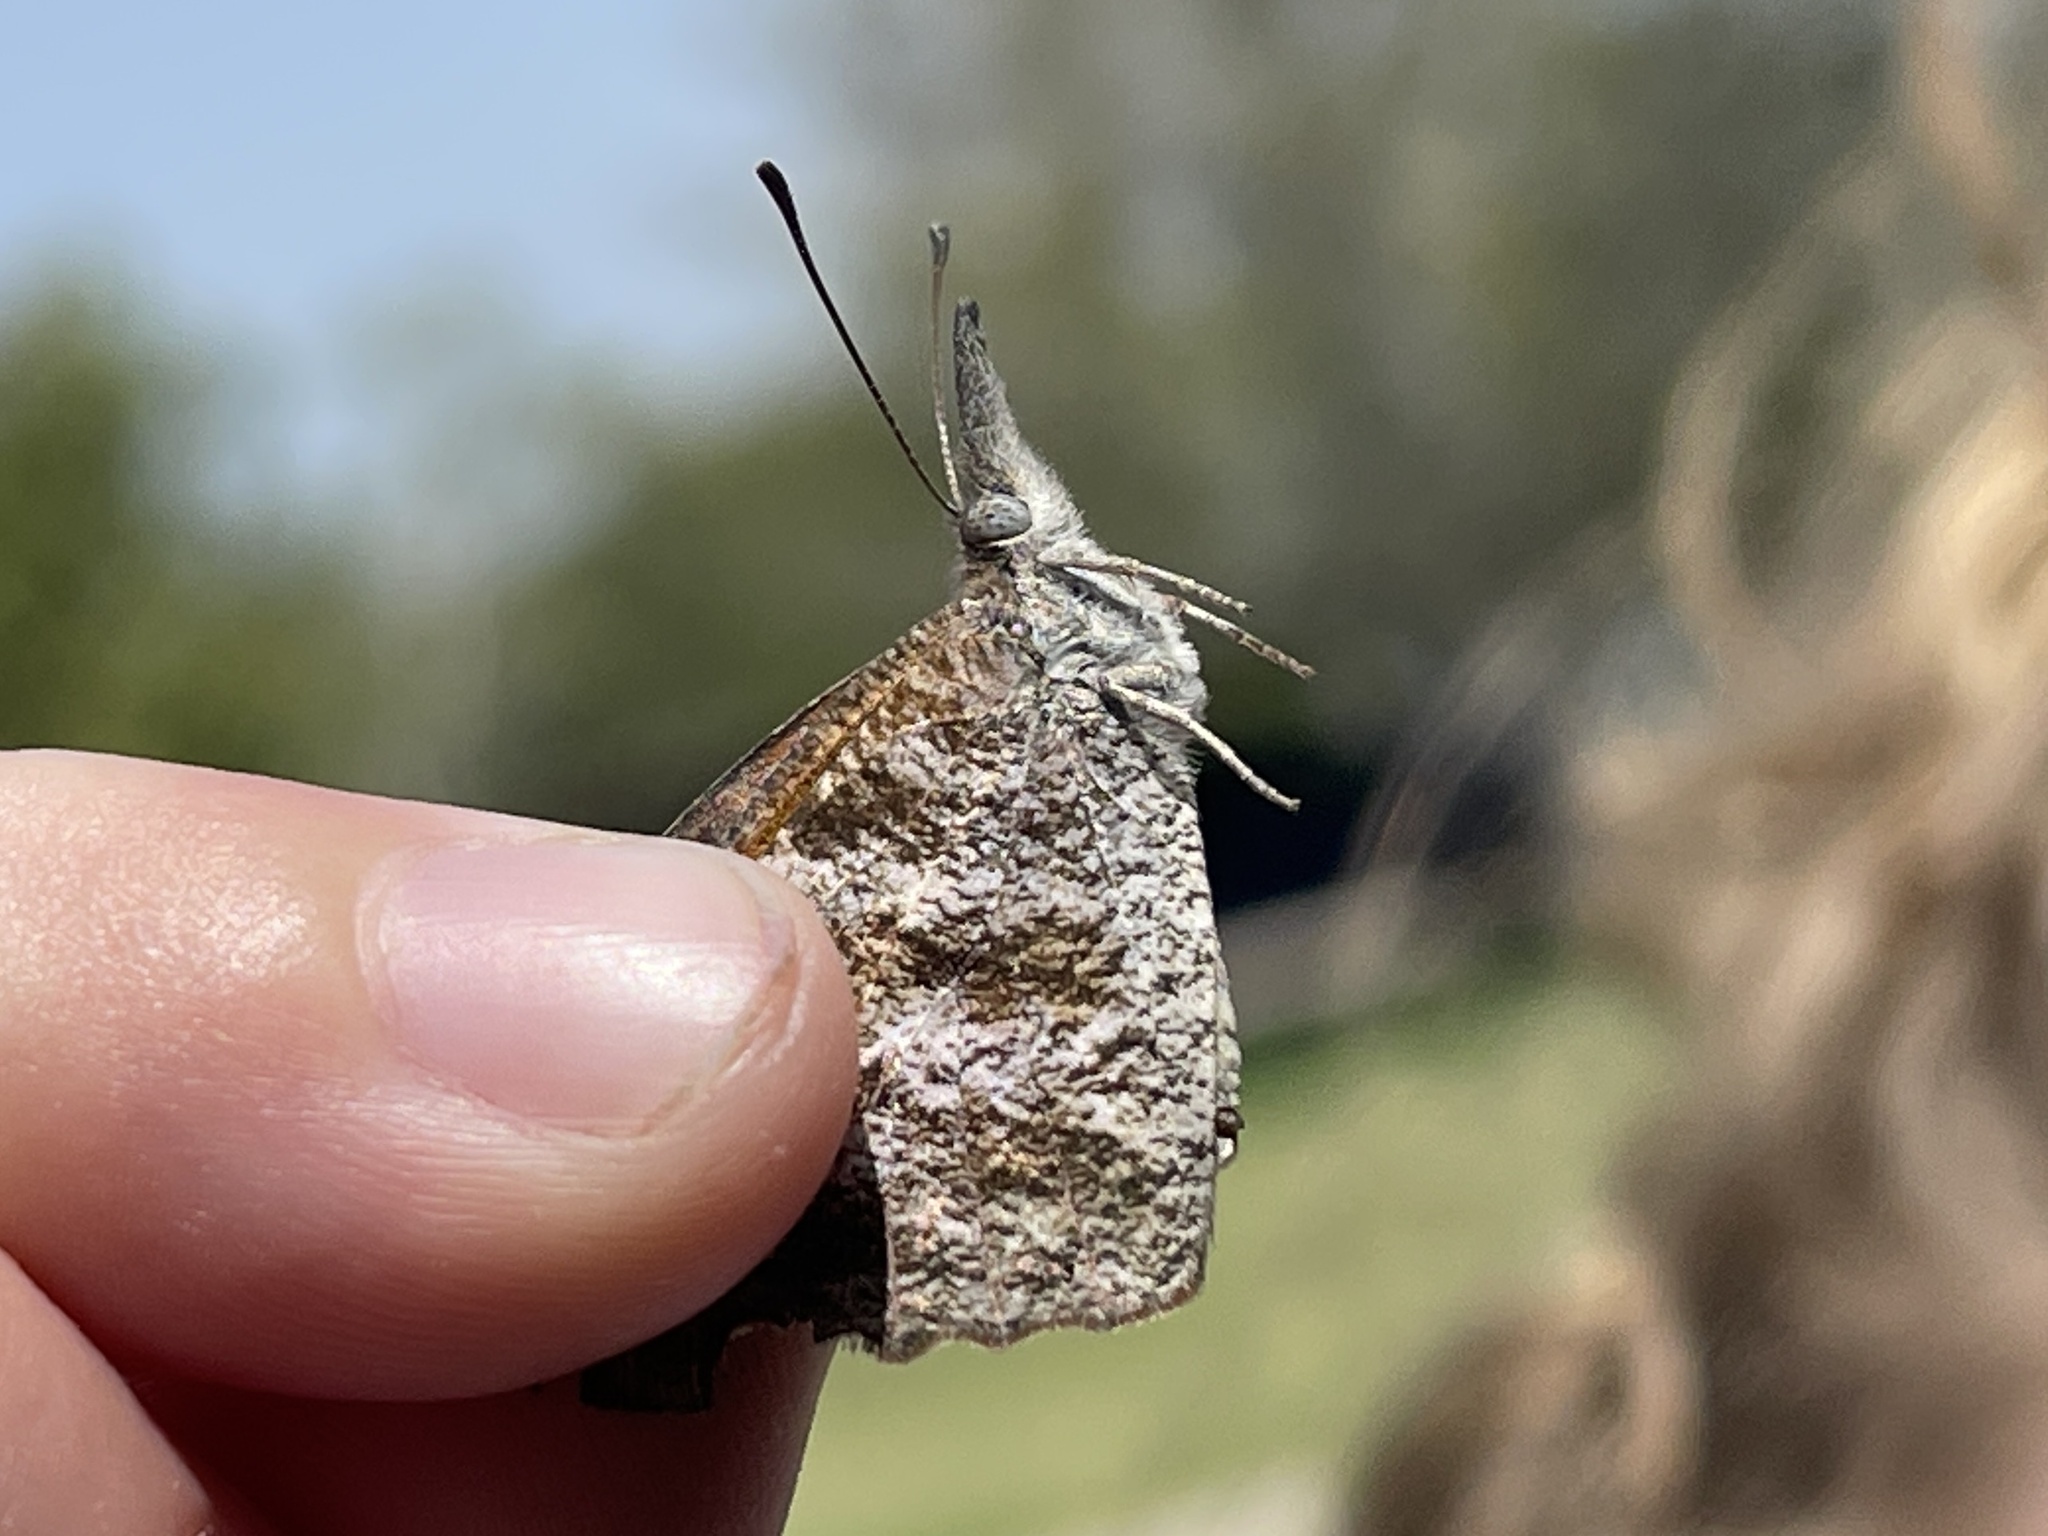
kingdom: Animalia
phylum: Arthropoda
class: Insecta
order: Lepidoptera
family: Nymphalidae
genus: Libytheana
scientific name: Libytheana carinenta
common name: American snout
